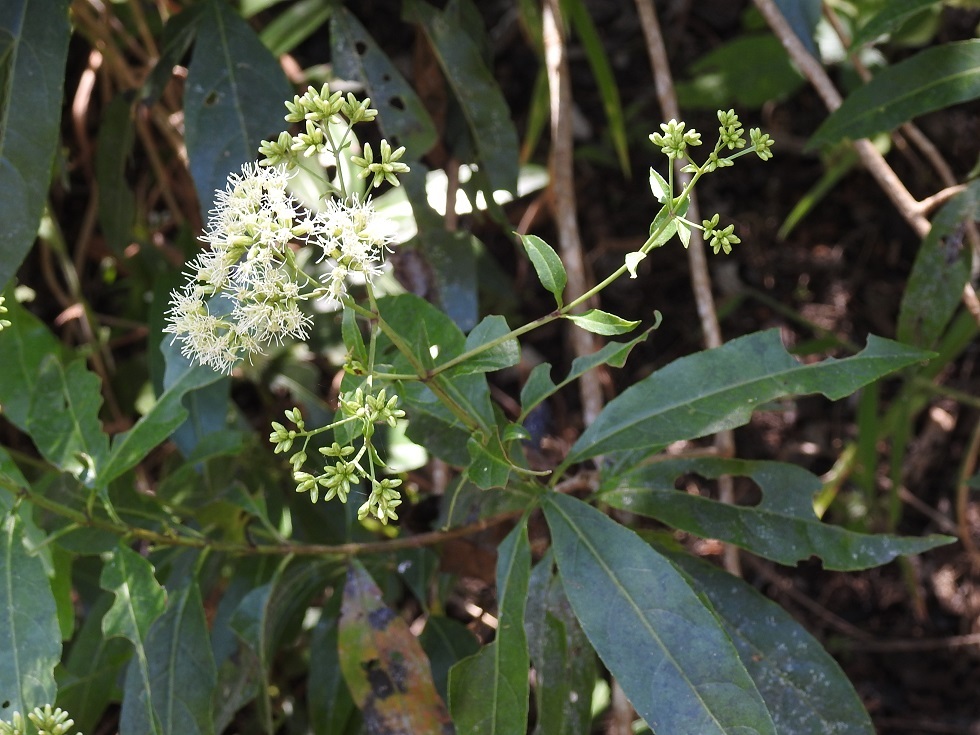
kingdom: Plantae
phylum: Tracheophyta
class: Magnoliopsida
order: Asterales
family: Asteraceae
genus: Critonia
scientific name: Critonia hospitalis
